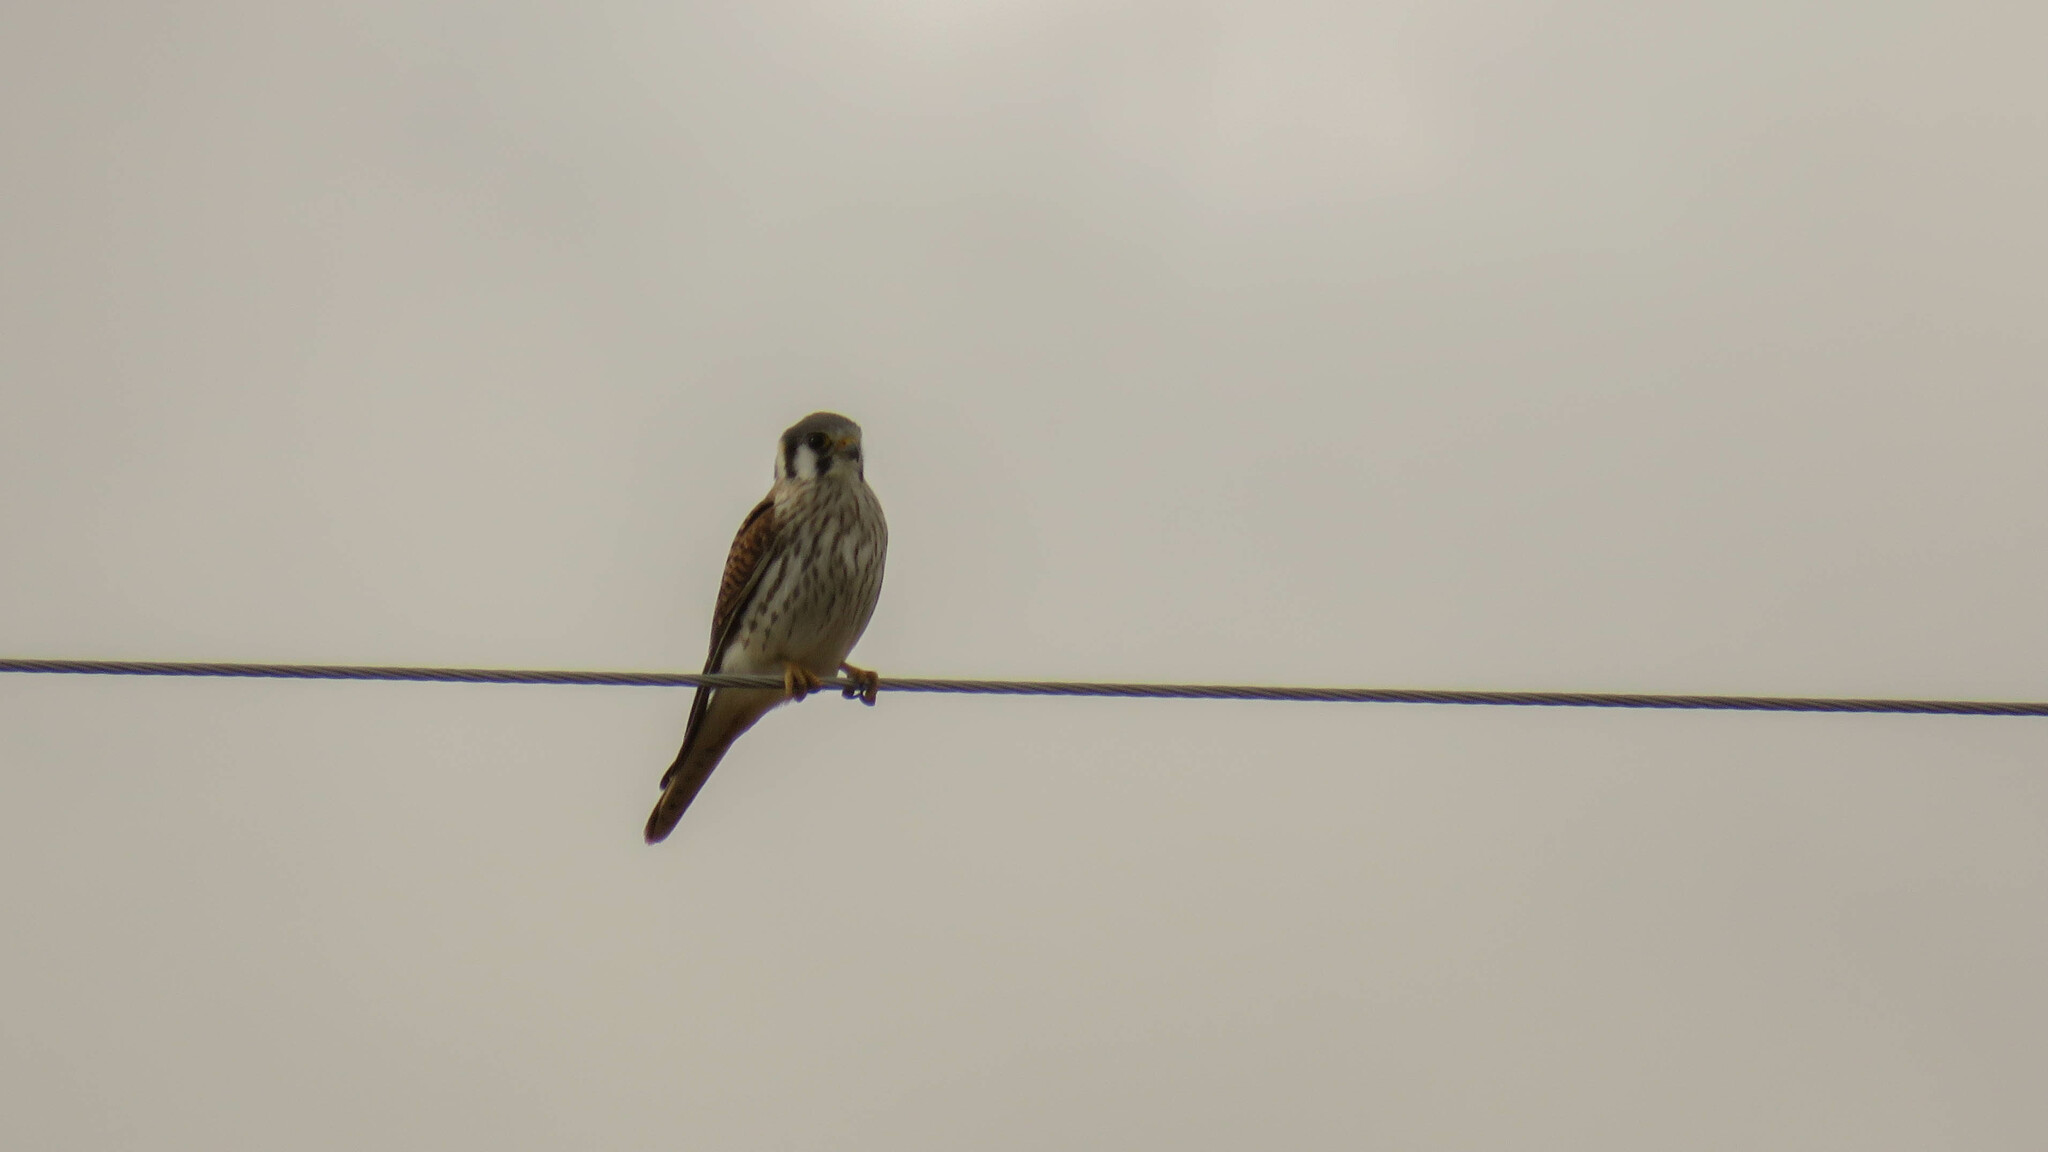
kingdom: Animalia
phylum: Chordata
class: Aves
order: Falconiformes
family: Falconidae
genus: Falco
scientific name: Falco sparverius
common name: American kestrel
